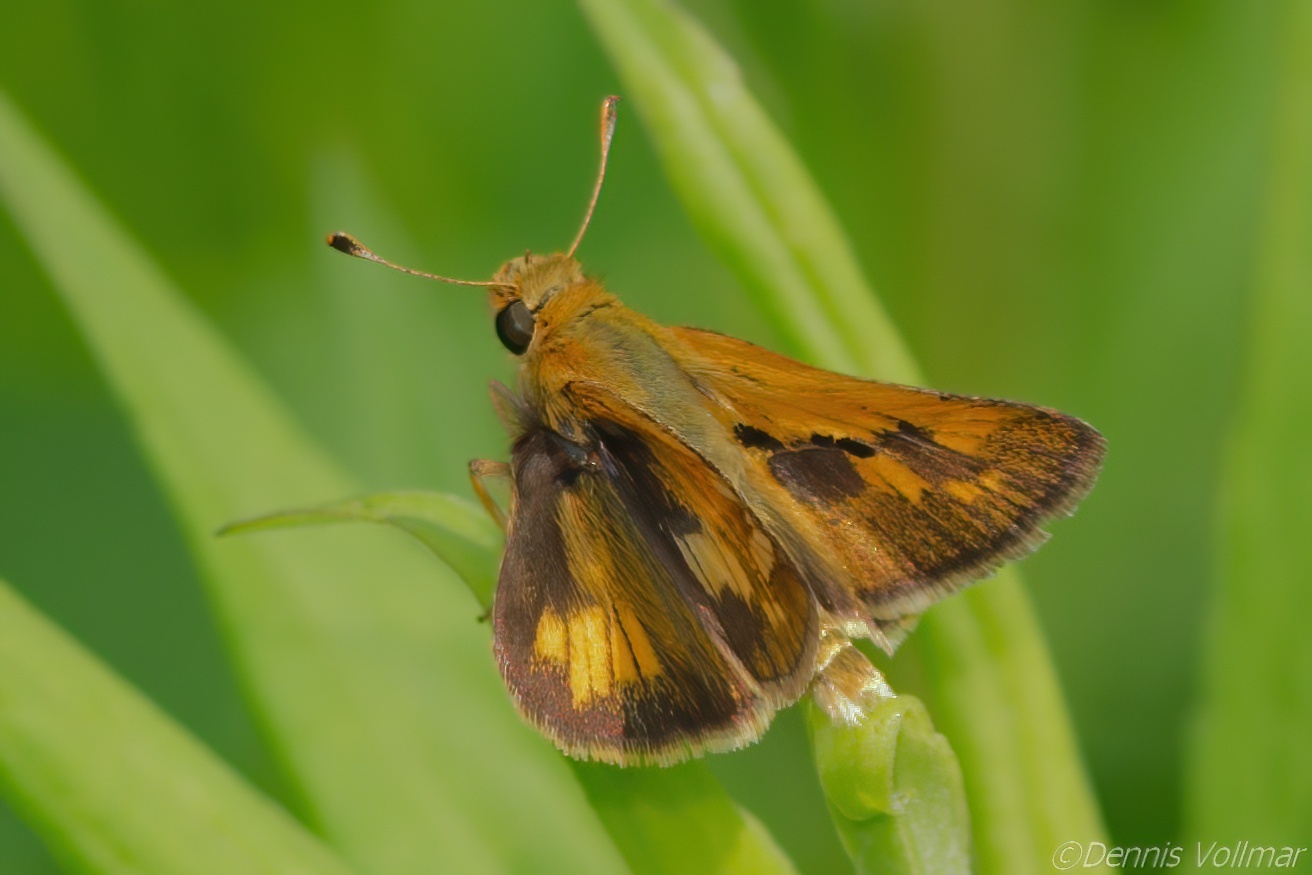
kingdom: Animalia
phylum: Arthropoda
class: Insecta
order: Lepidoptera
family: Hesperiidae
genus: Polites
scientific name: Polites coras
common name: Peck's skipper
